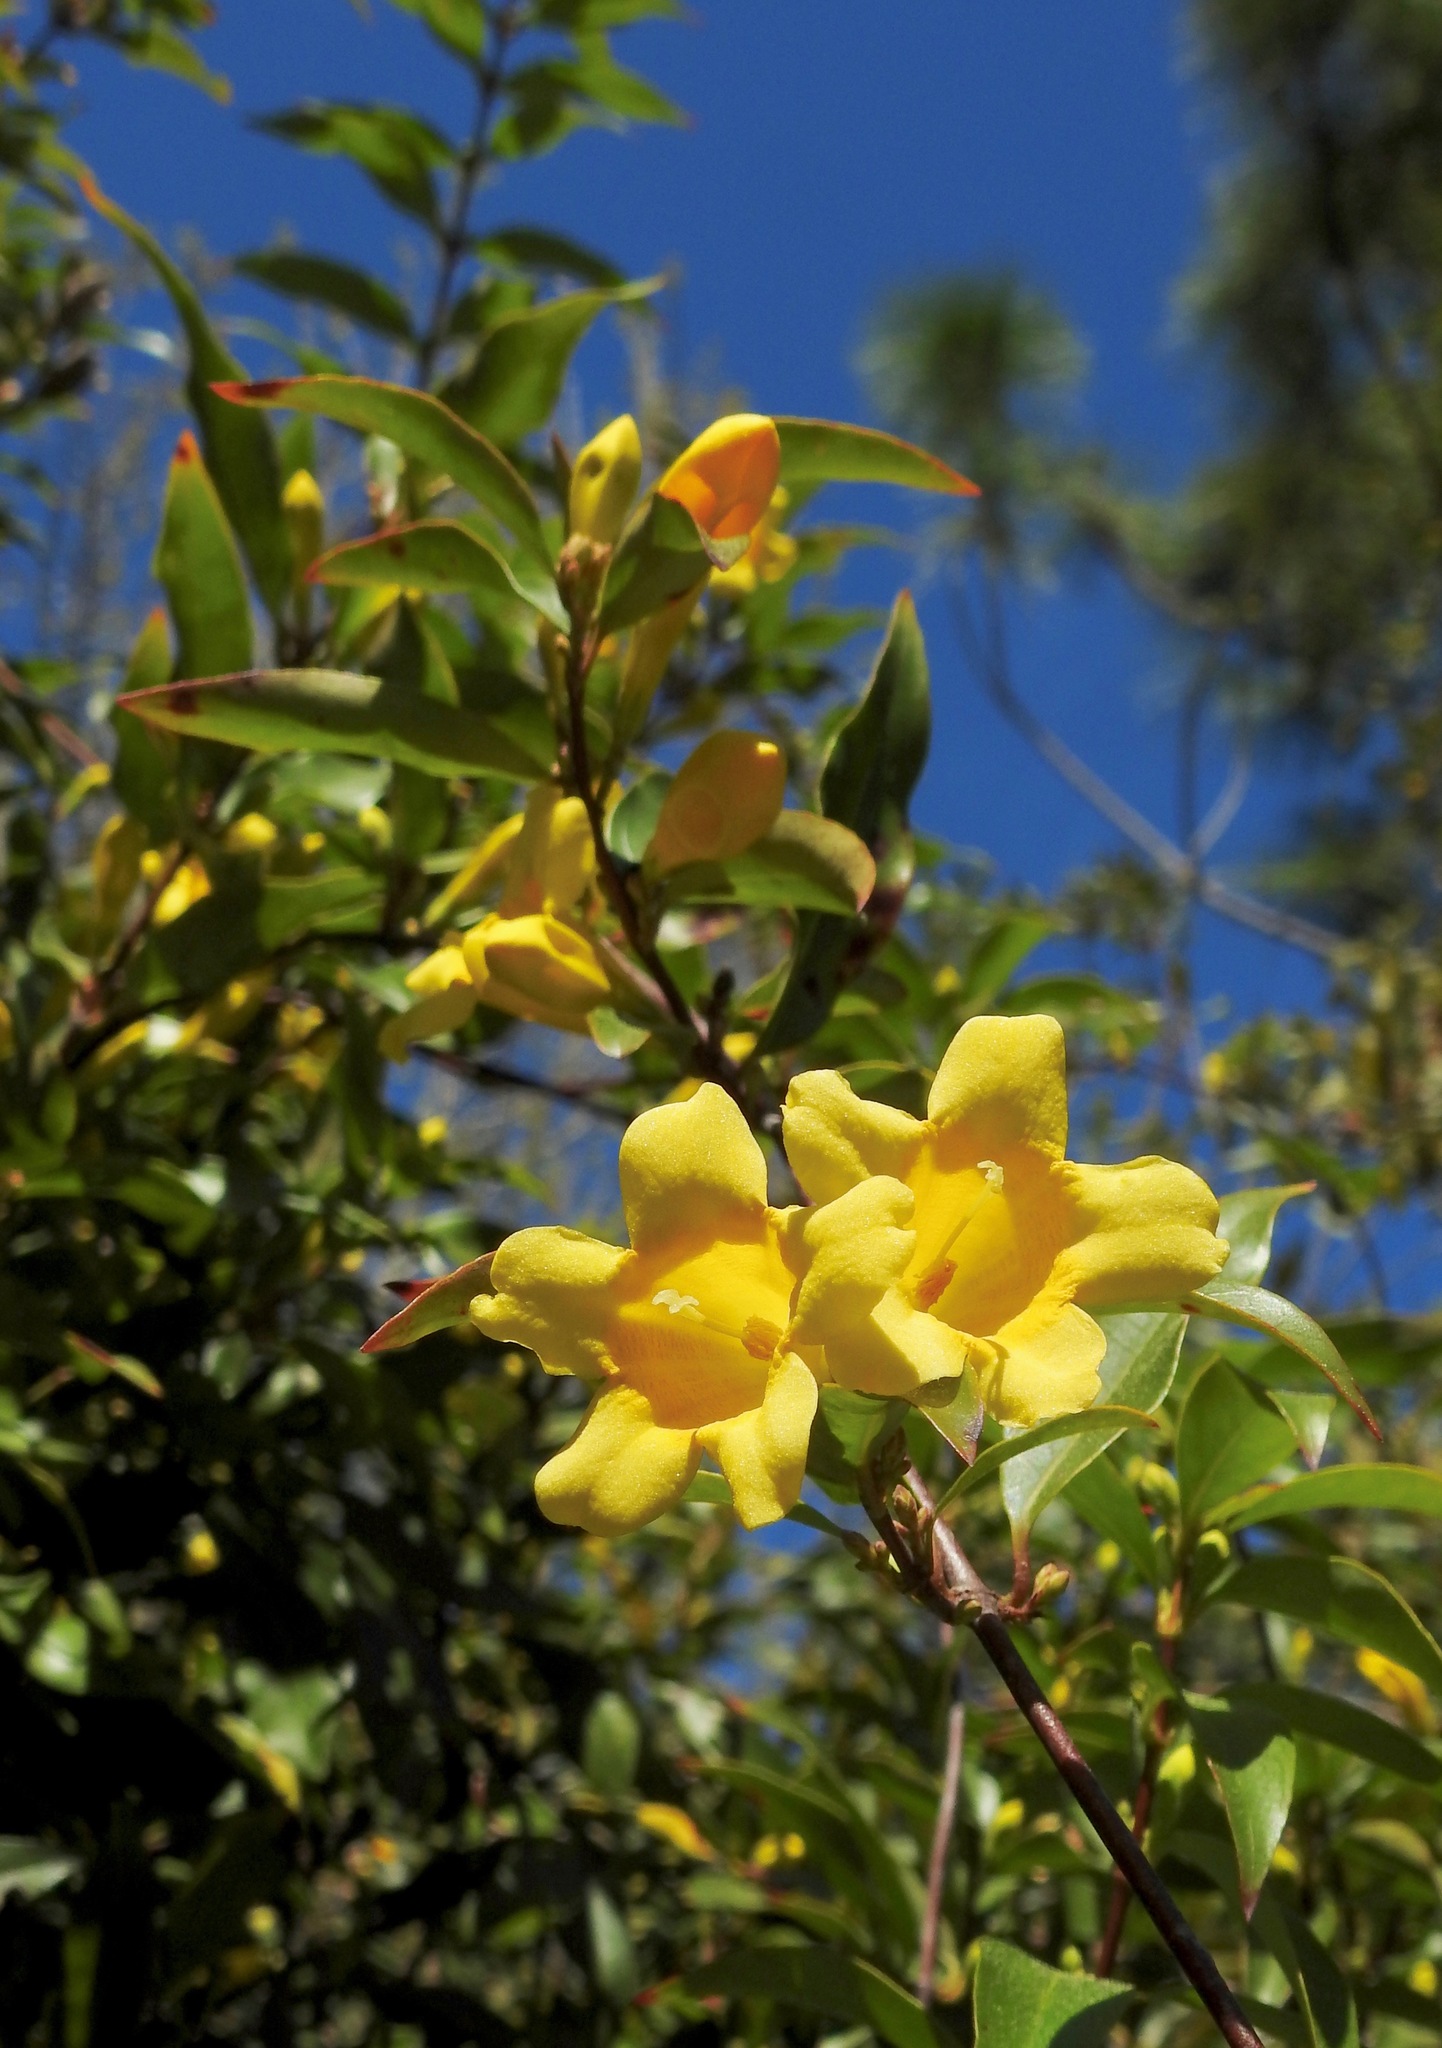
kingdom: Plantae
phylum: Tracheophyta
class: Magnoliopsida
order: Gentianales
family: Gelsemiaceae
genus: Gelsemium
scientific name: Gelsemium sempervirens
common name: Carolina-jasmine
